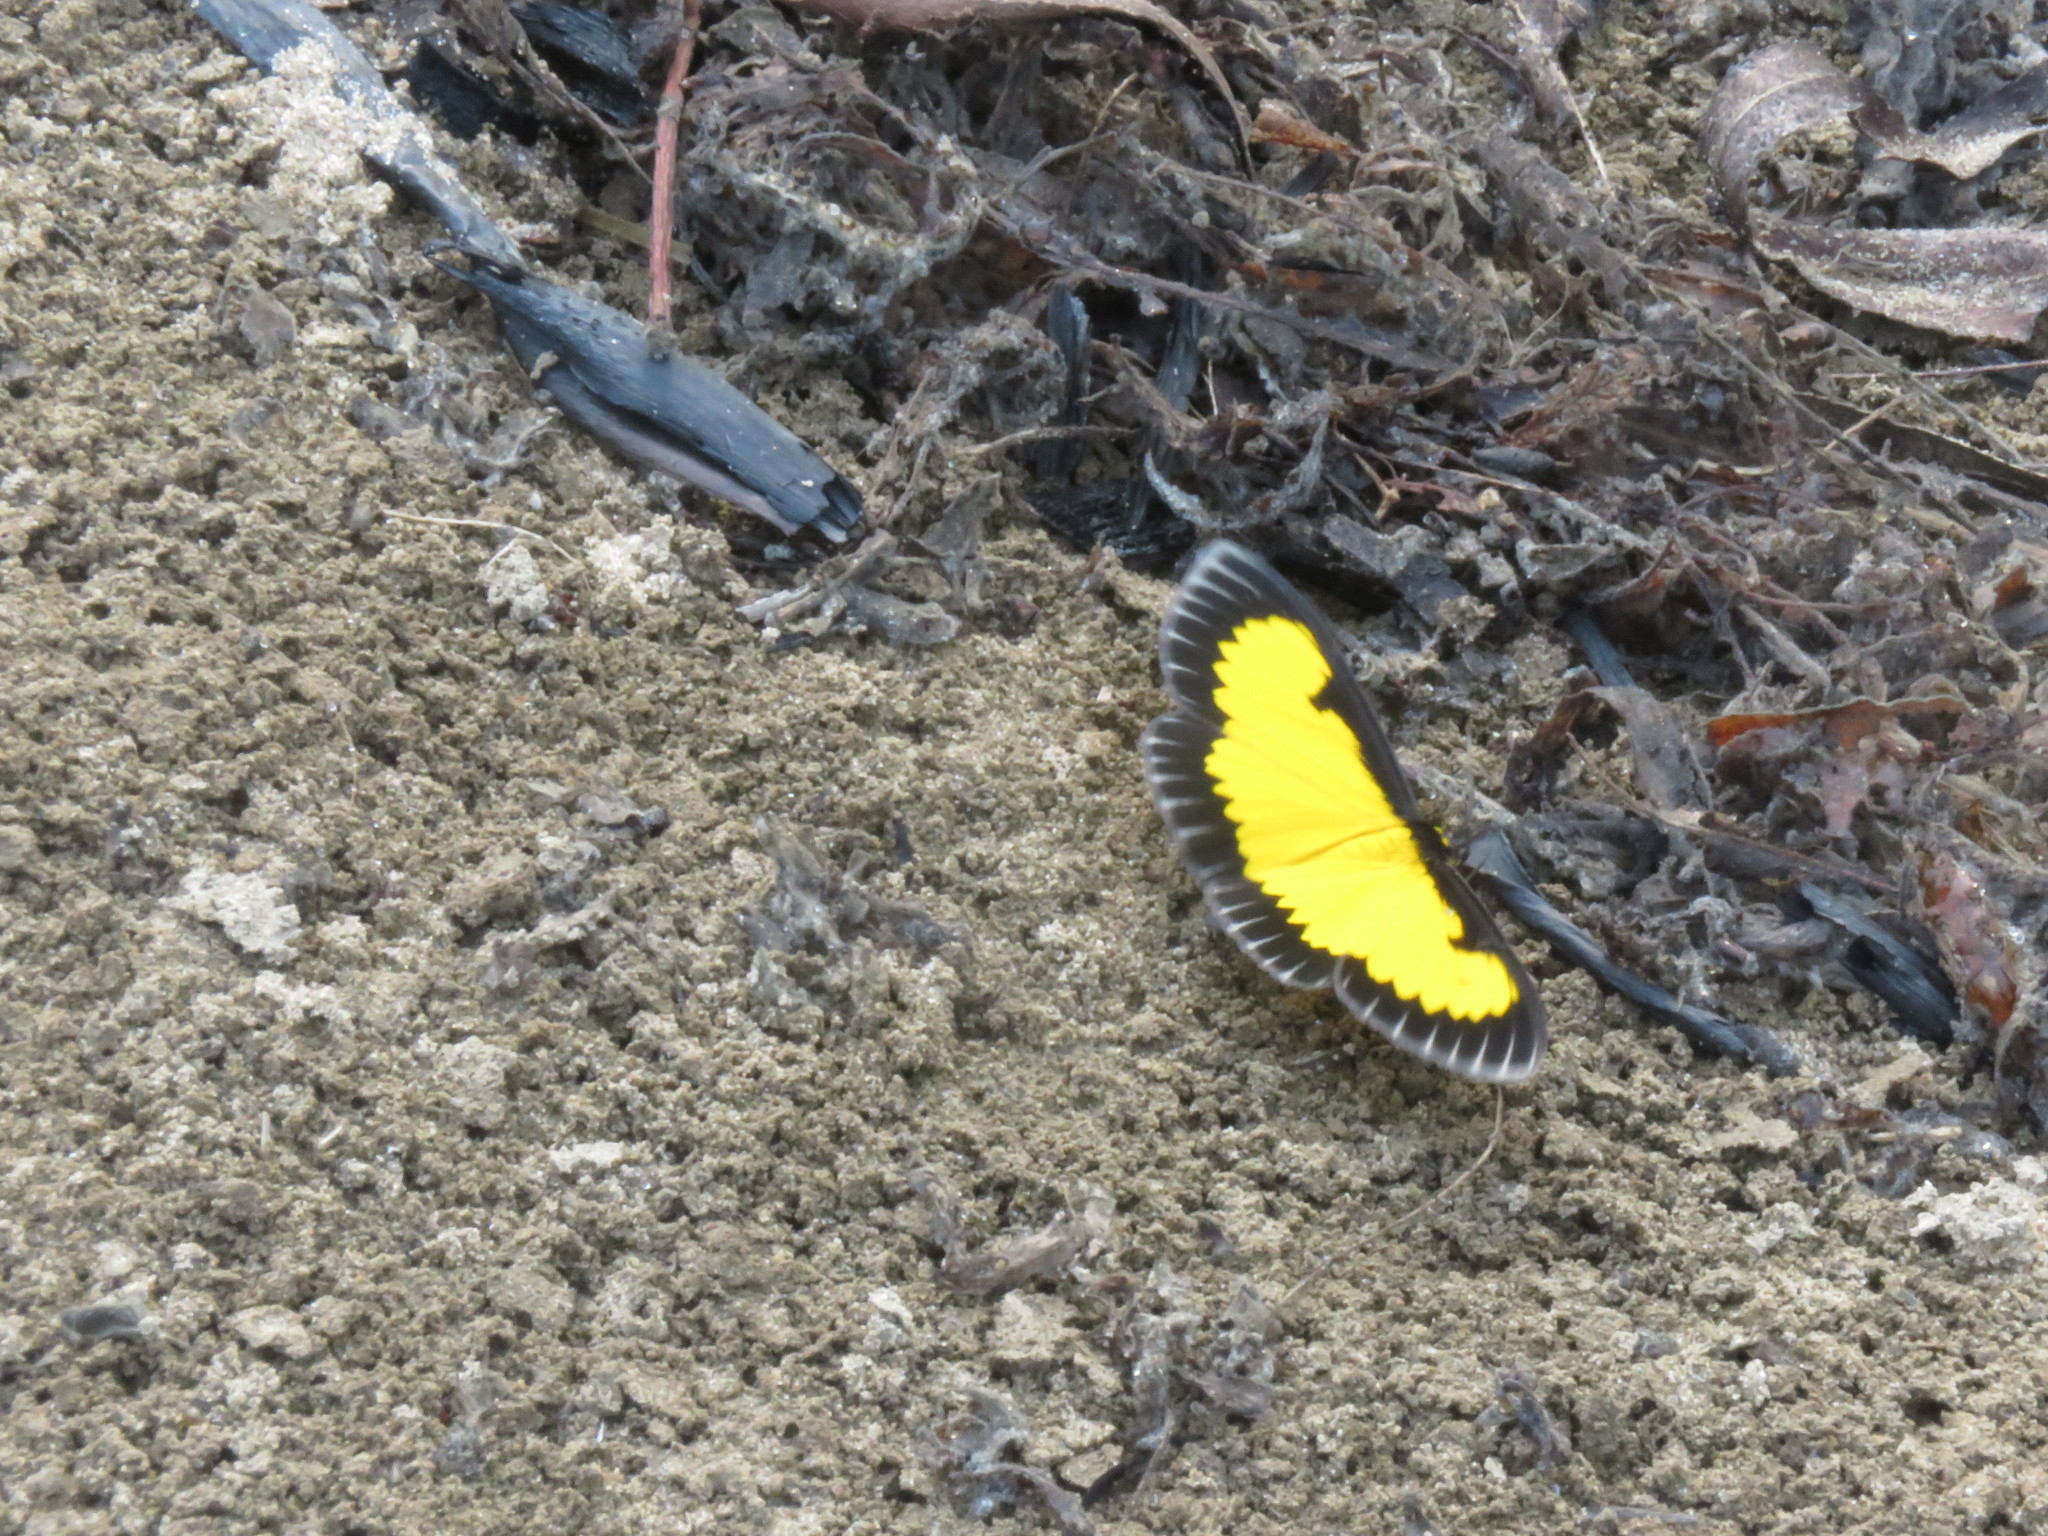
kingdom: Animalia
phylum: Arthropoda
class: Insecta
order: Lepidoptera
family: Geometridae
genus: Xanthyris
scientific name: Xanthyris flaveolata
